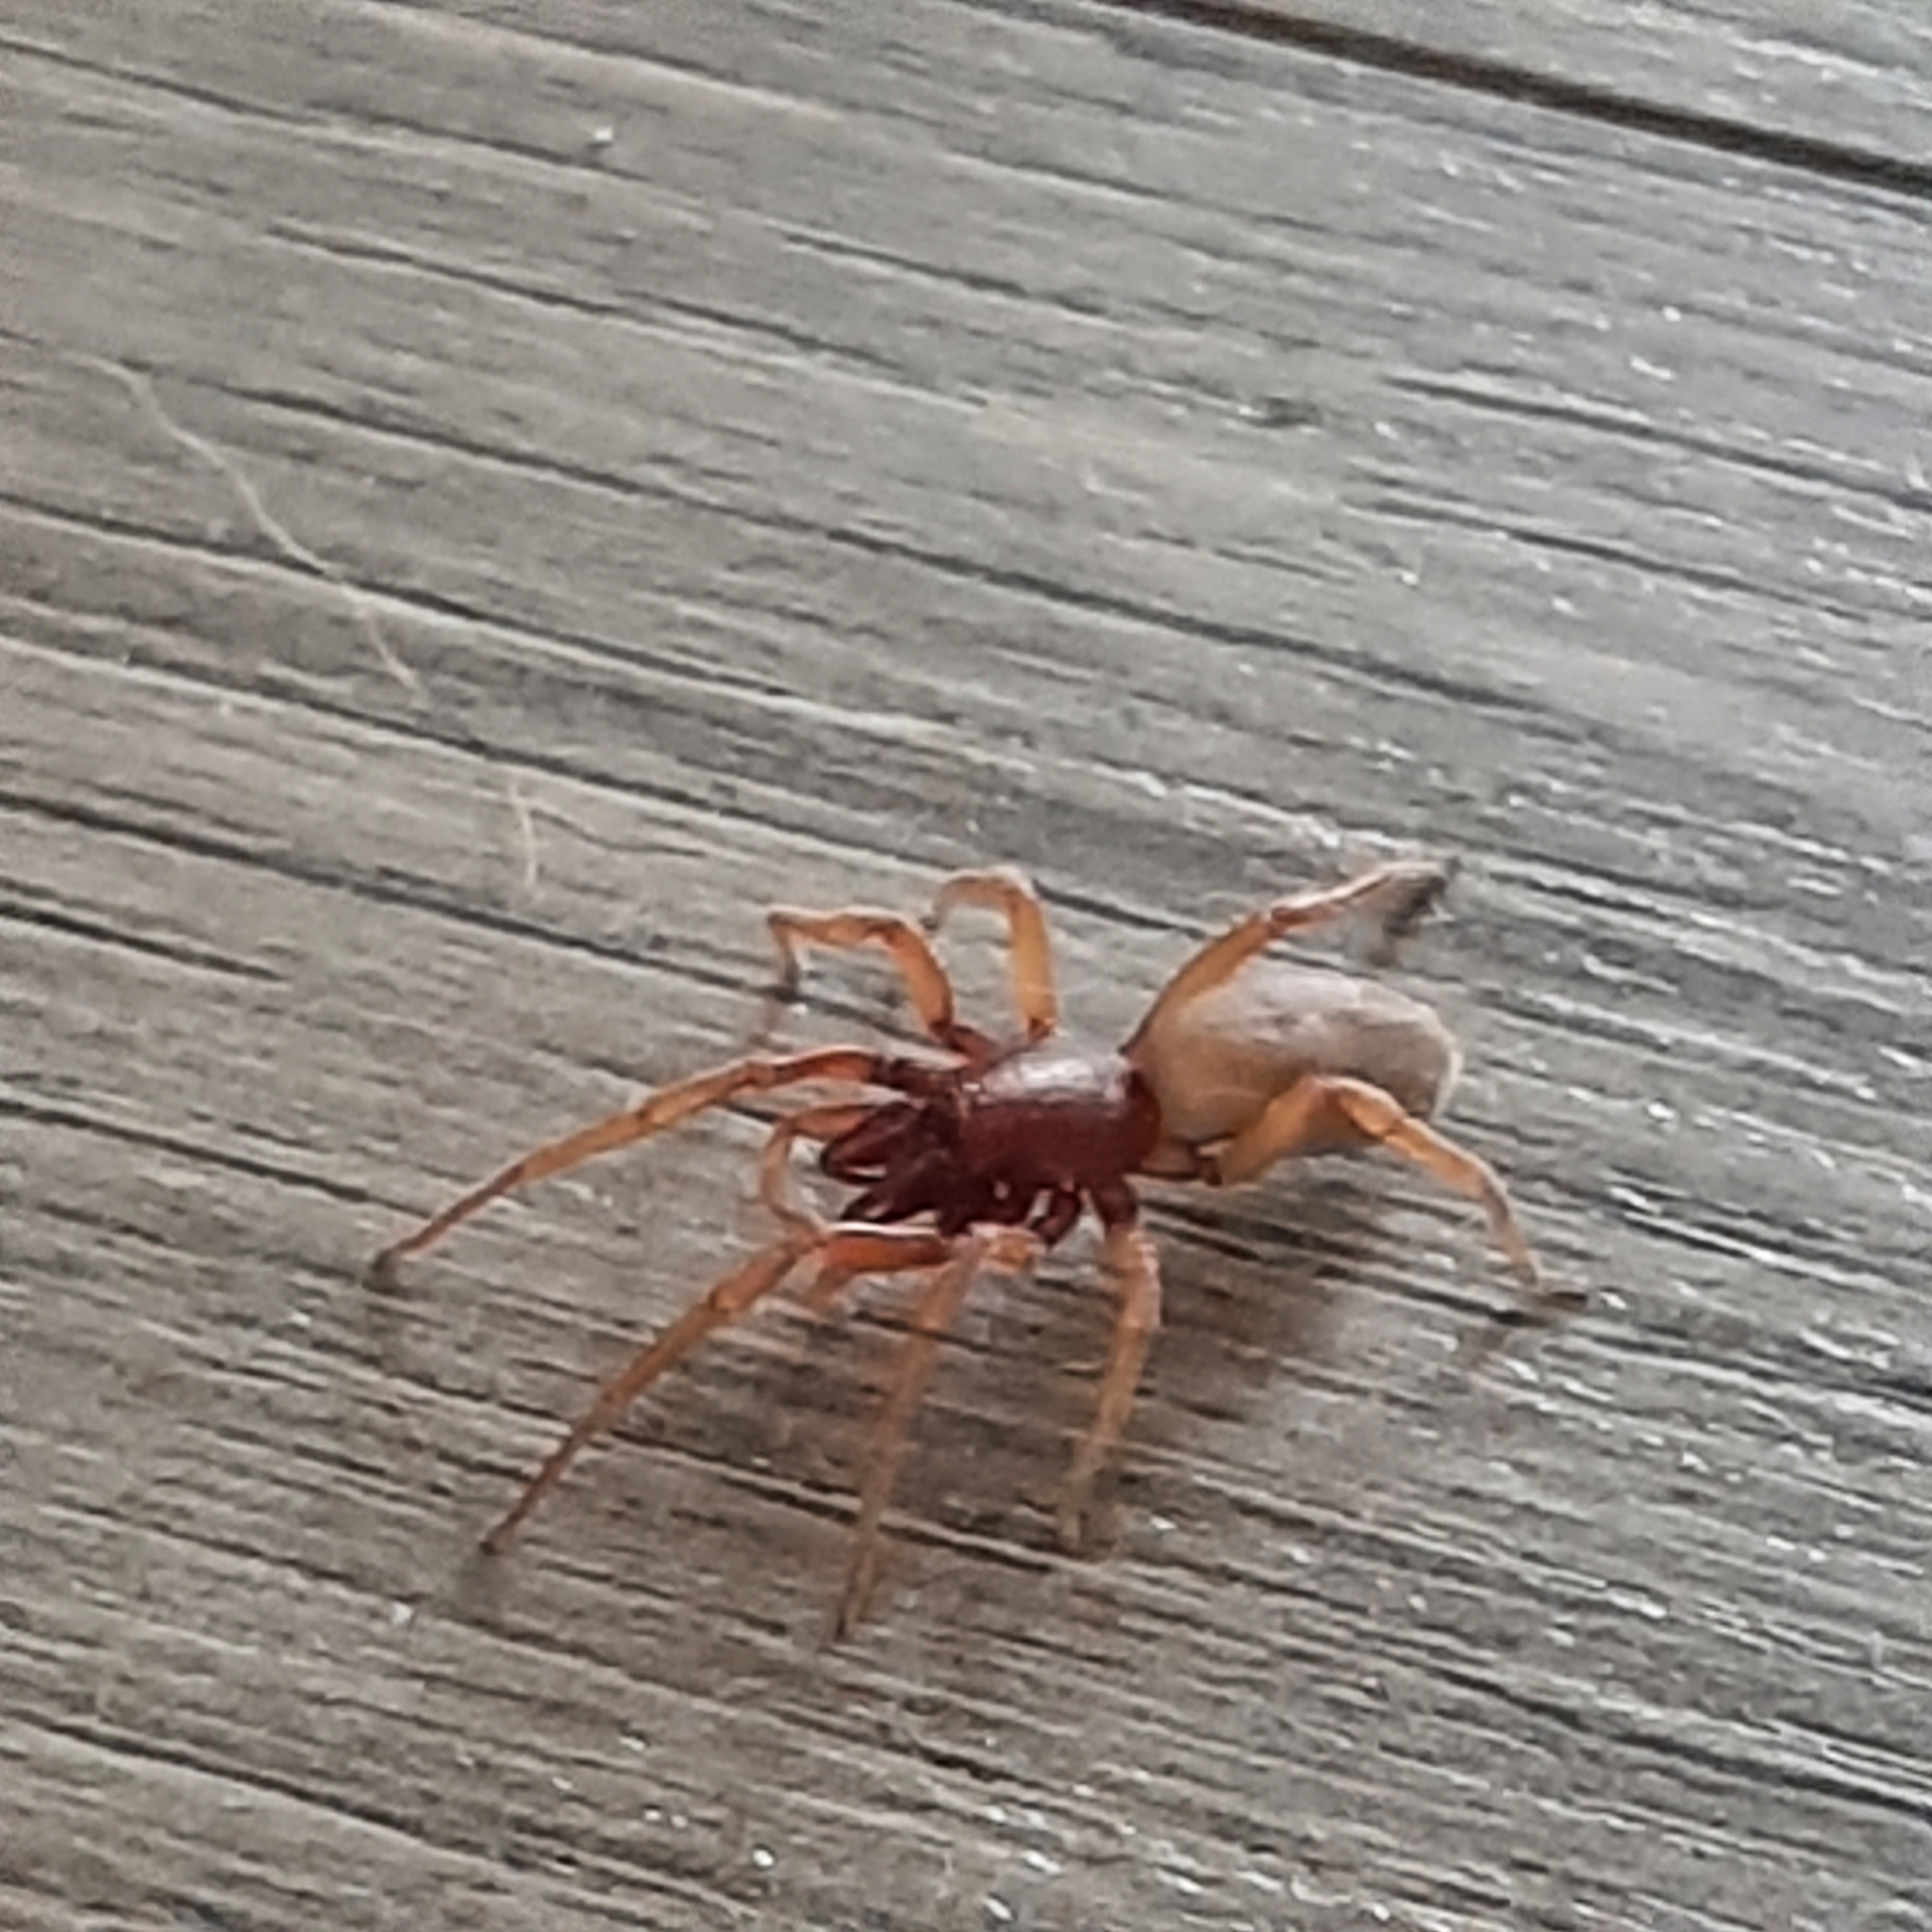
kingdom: Animalia
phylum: Arthropoda
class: Arachnida
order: Araneae
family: Dysderidae
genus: Dysdera
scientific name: Dysdera crocata
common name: Woodlouse spider
